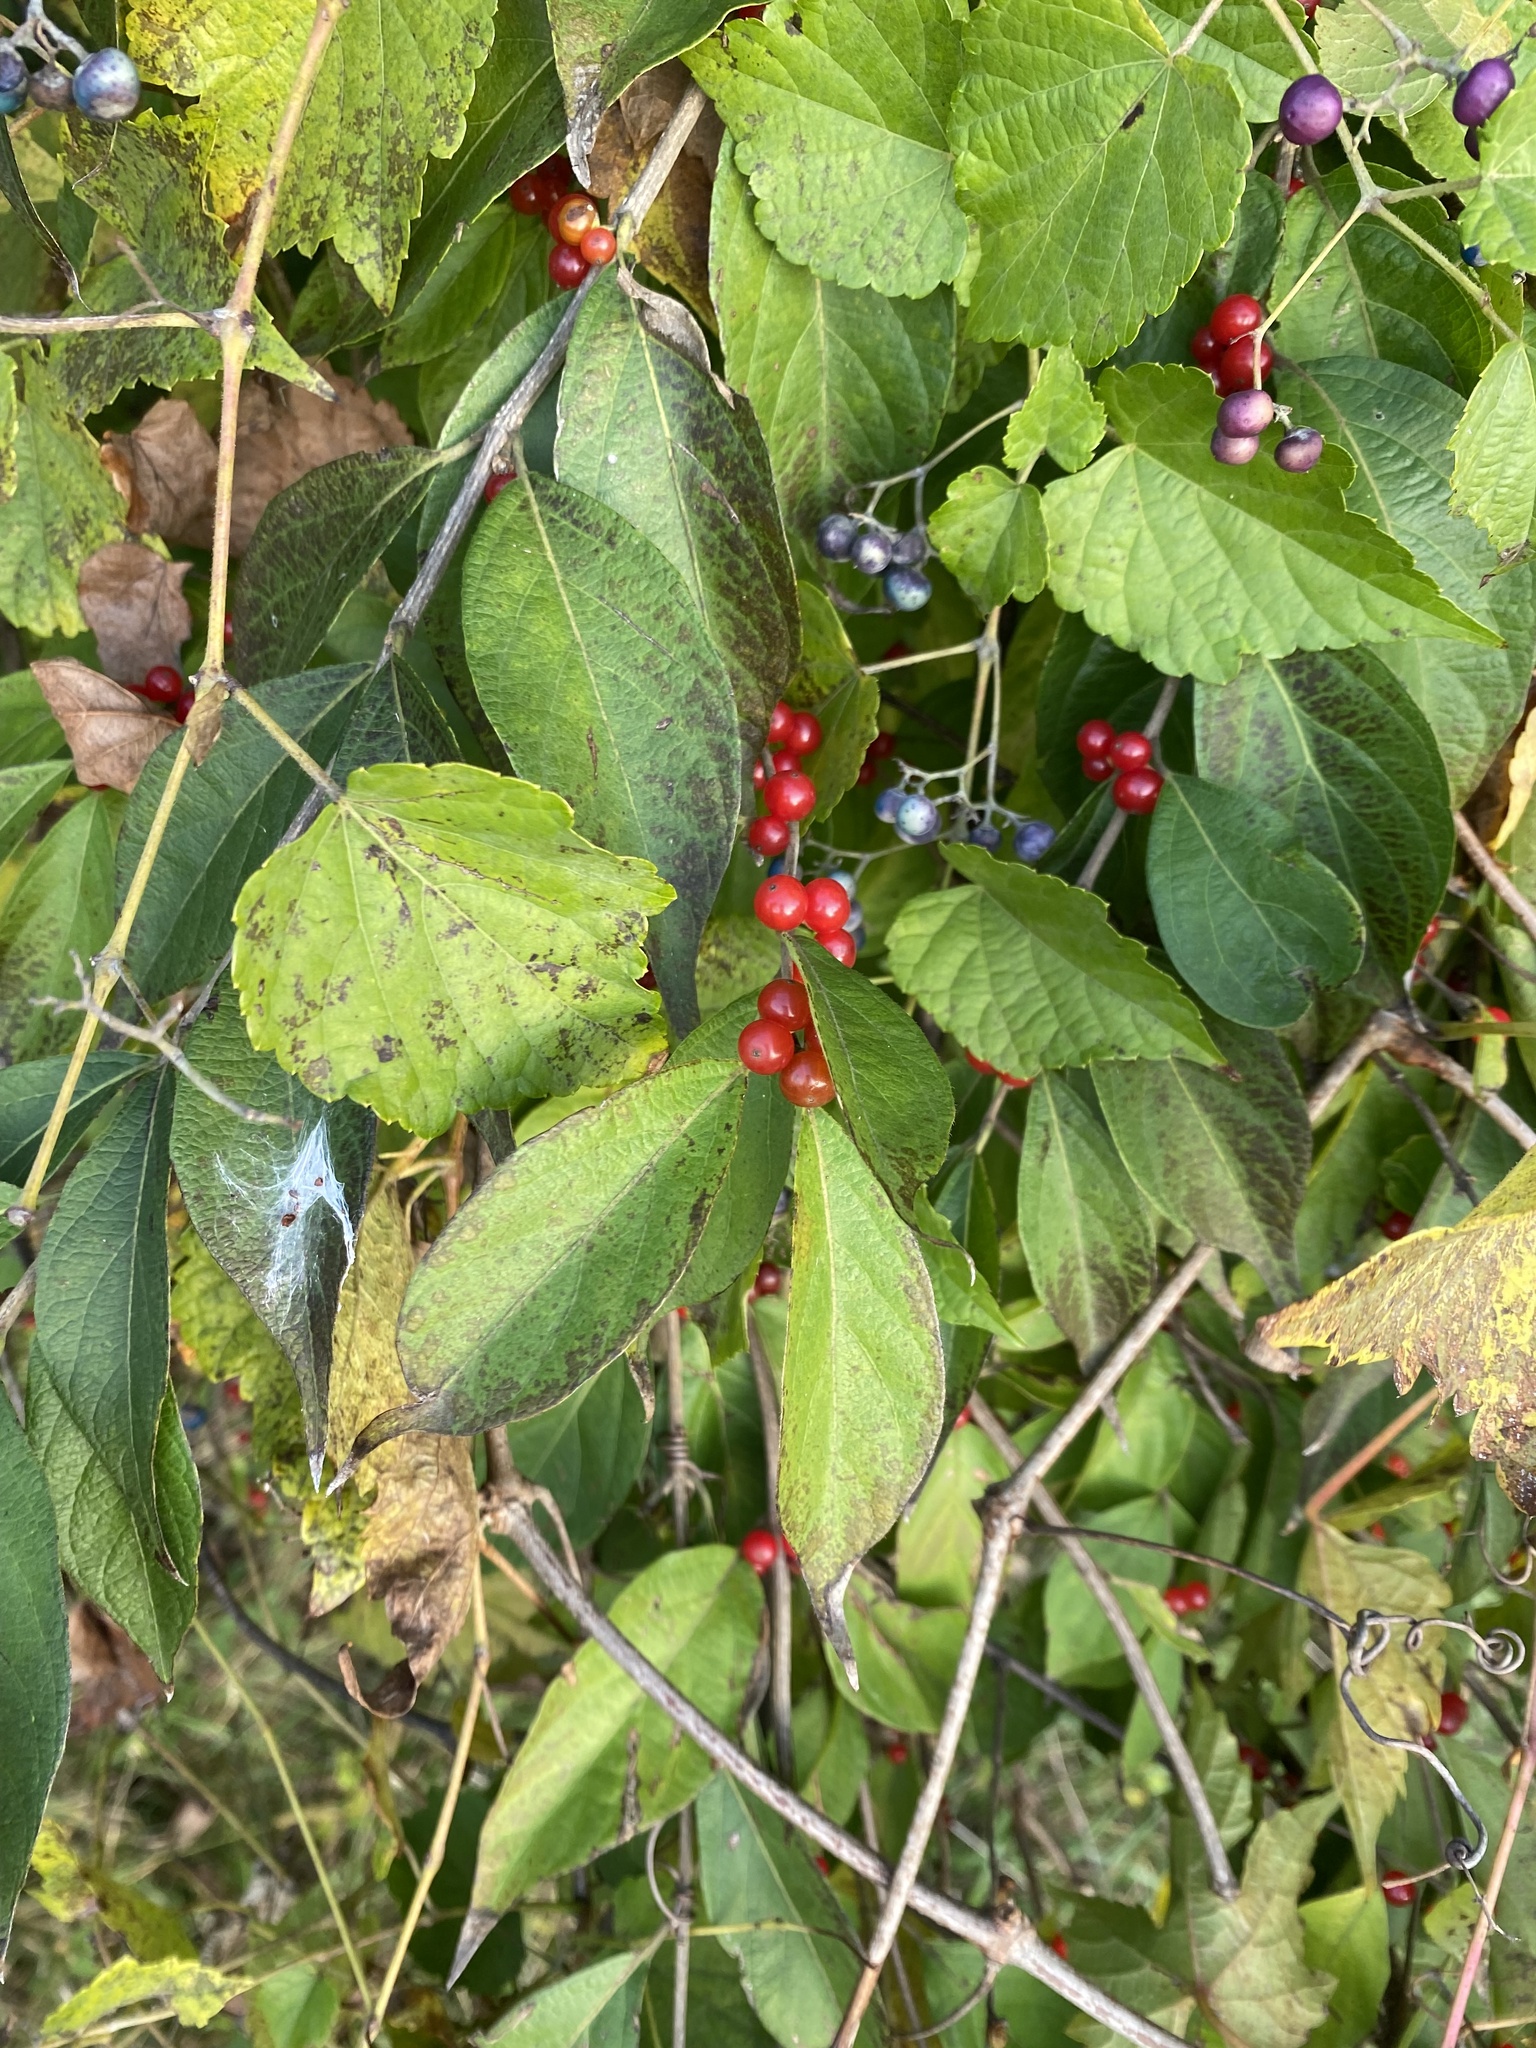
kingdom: Plantae
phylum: Tracheophyta
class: Magnoliopsida
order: Dipsacales
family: Caprifoliaceae
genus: Lonicera
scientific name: Lonicera maackii
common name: Amur honeysuckle
